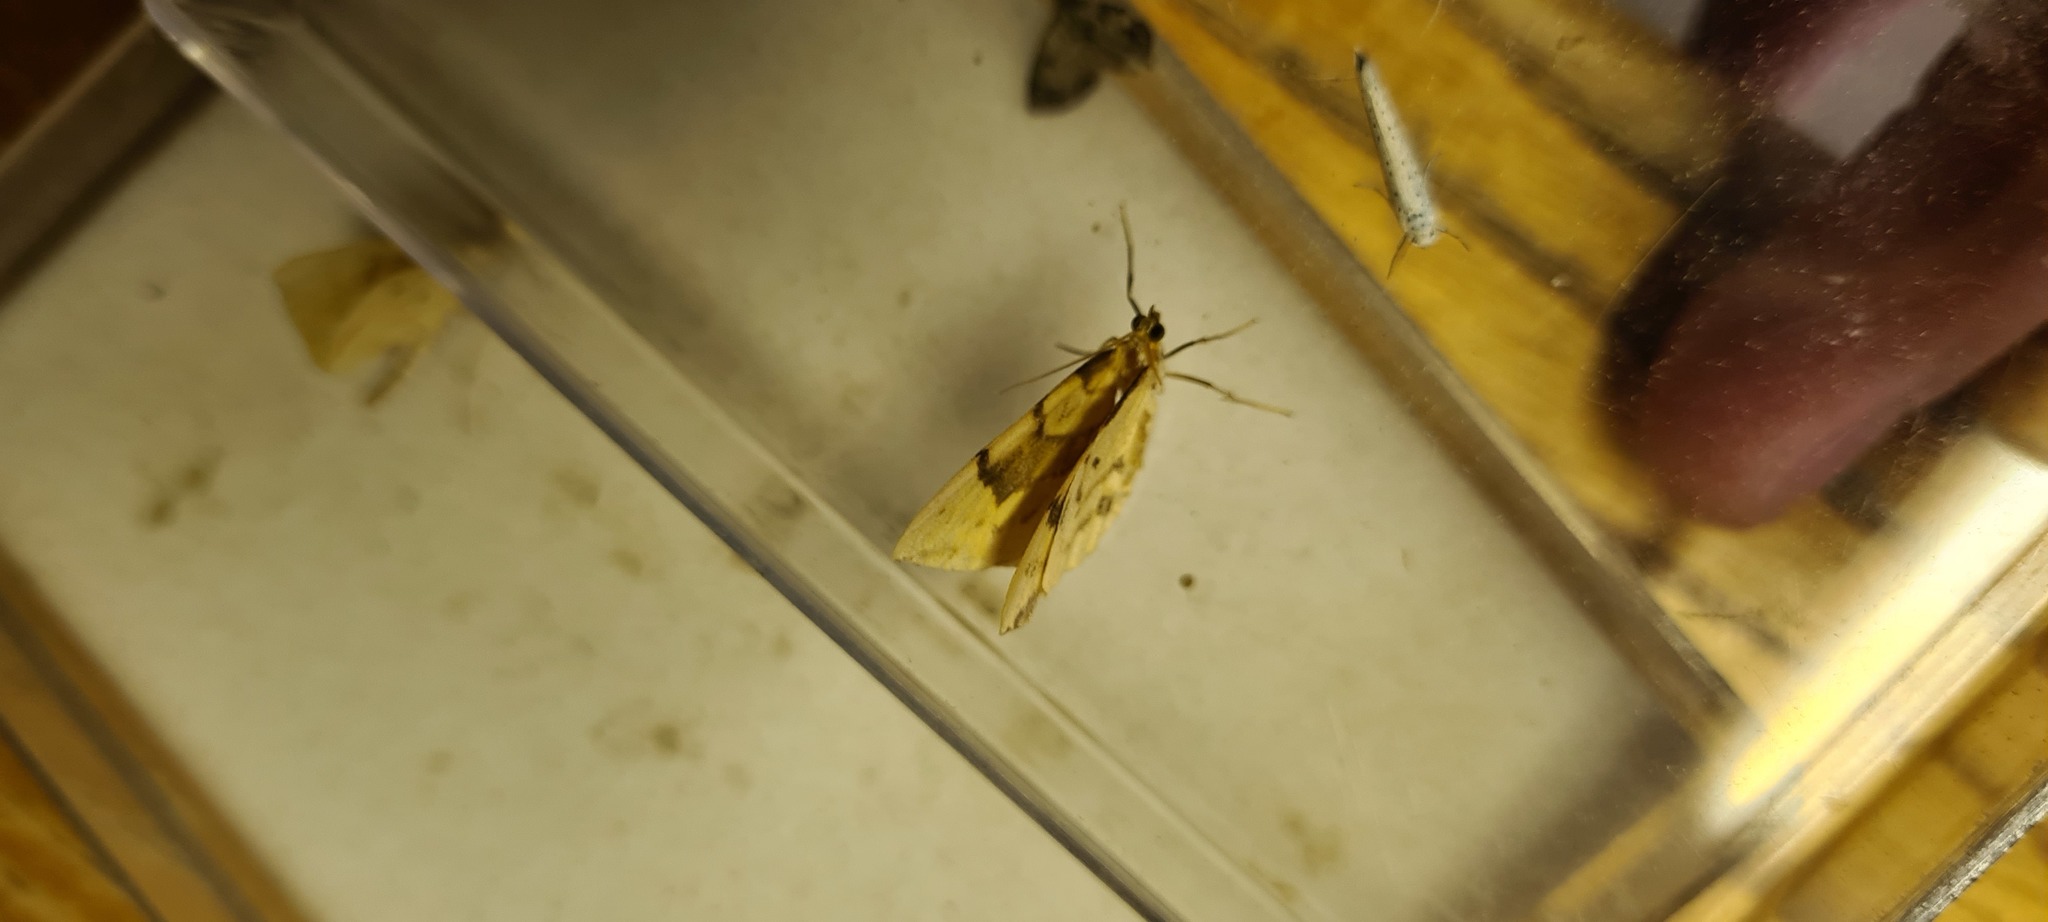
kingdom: Animalia
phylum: Arthropoda
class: Insecta
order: Lepidoptera
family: Geometridae
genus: Eulithis
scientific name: Eulithis pyraliata
